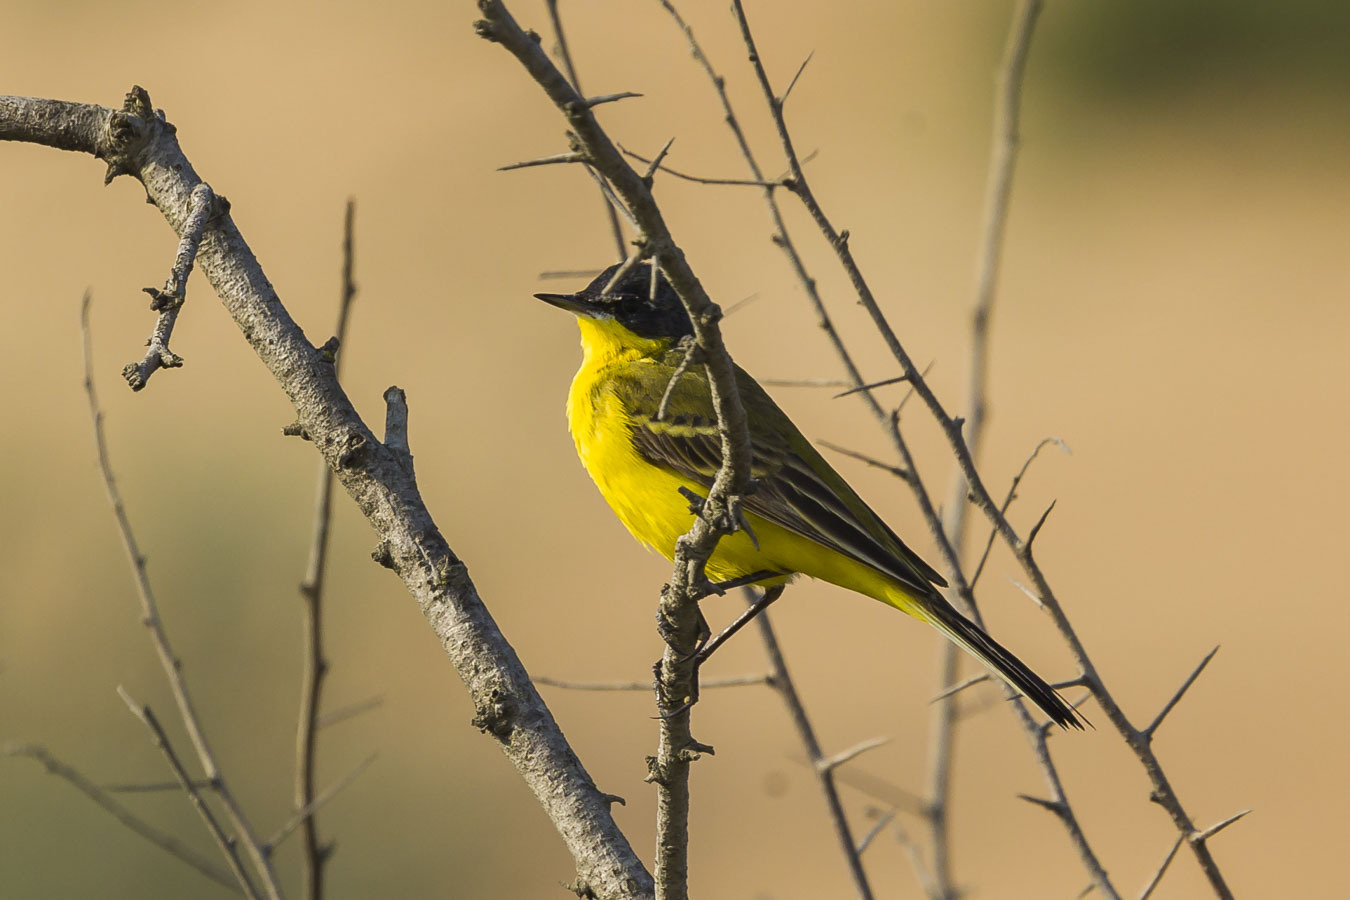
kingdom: Animalia
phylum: Chordata
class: Aves
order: Passeriformes
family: Motacillidae
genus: Motacilla
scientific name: Motacilla flava
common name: Western yellow wagtail
